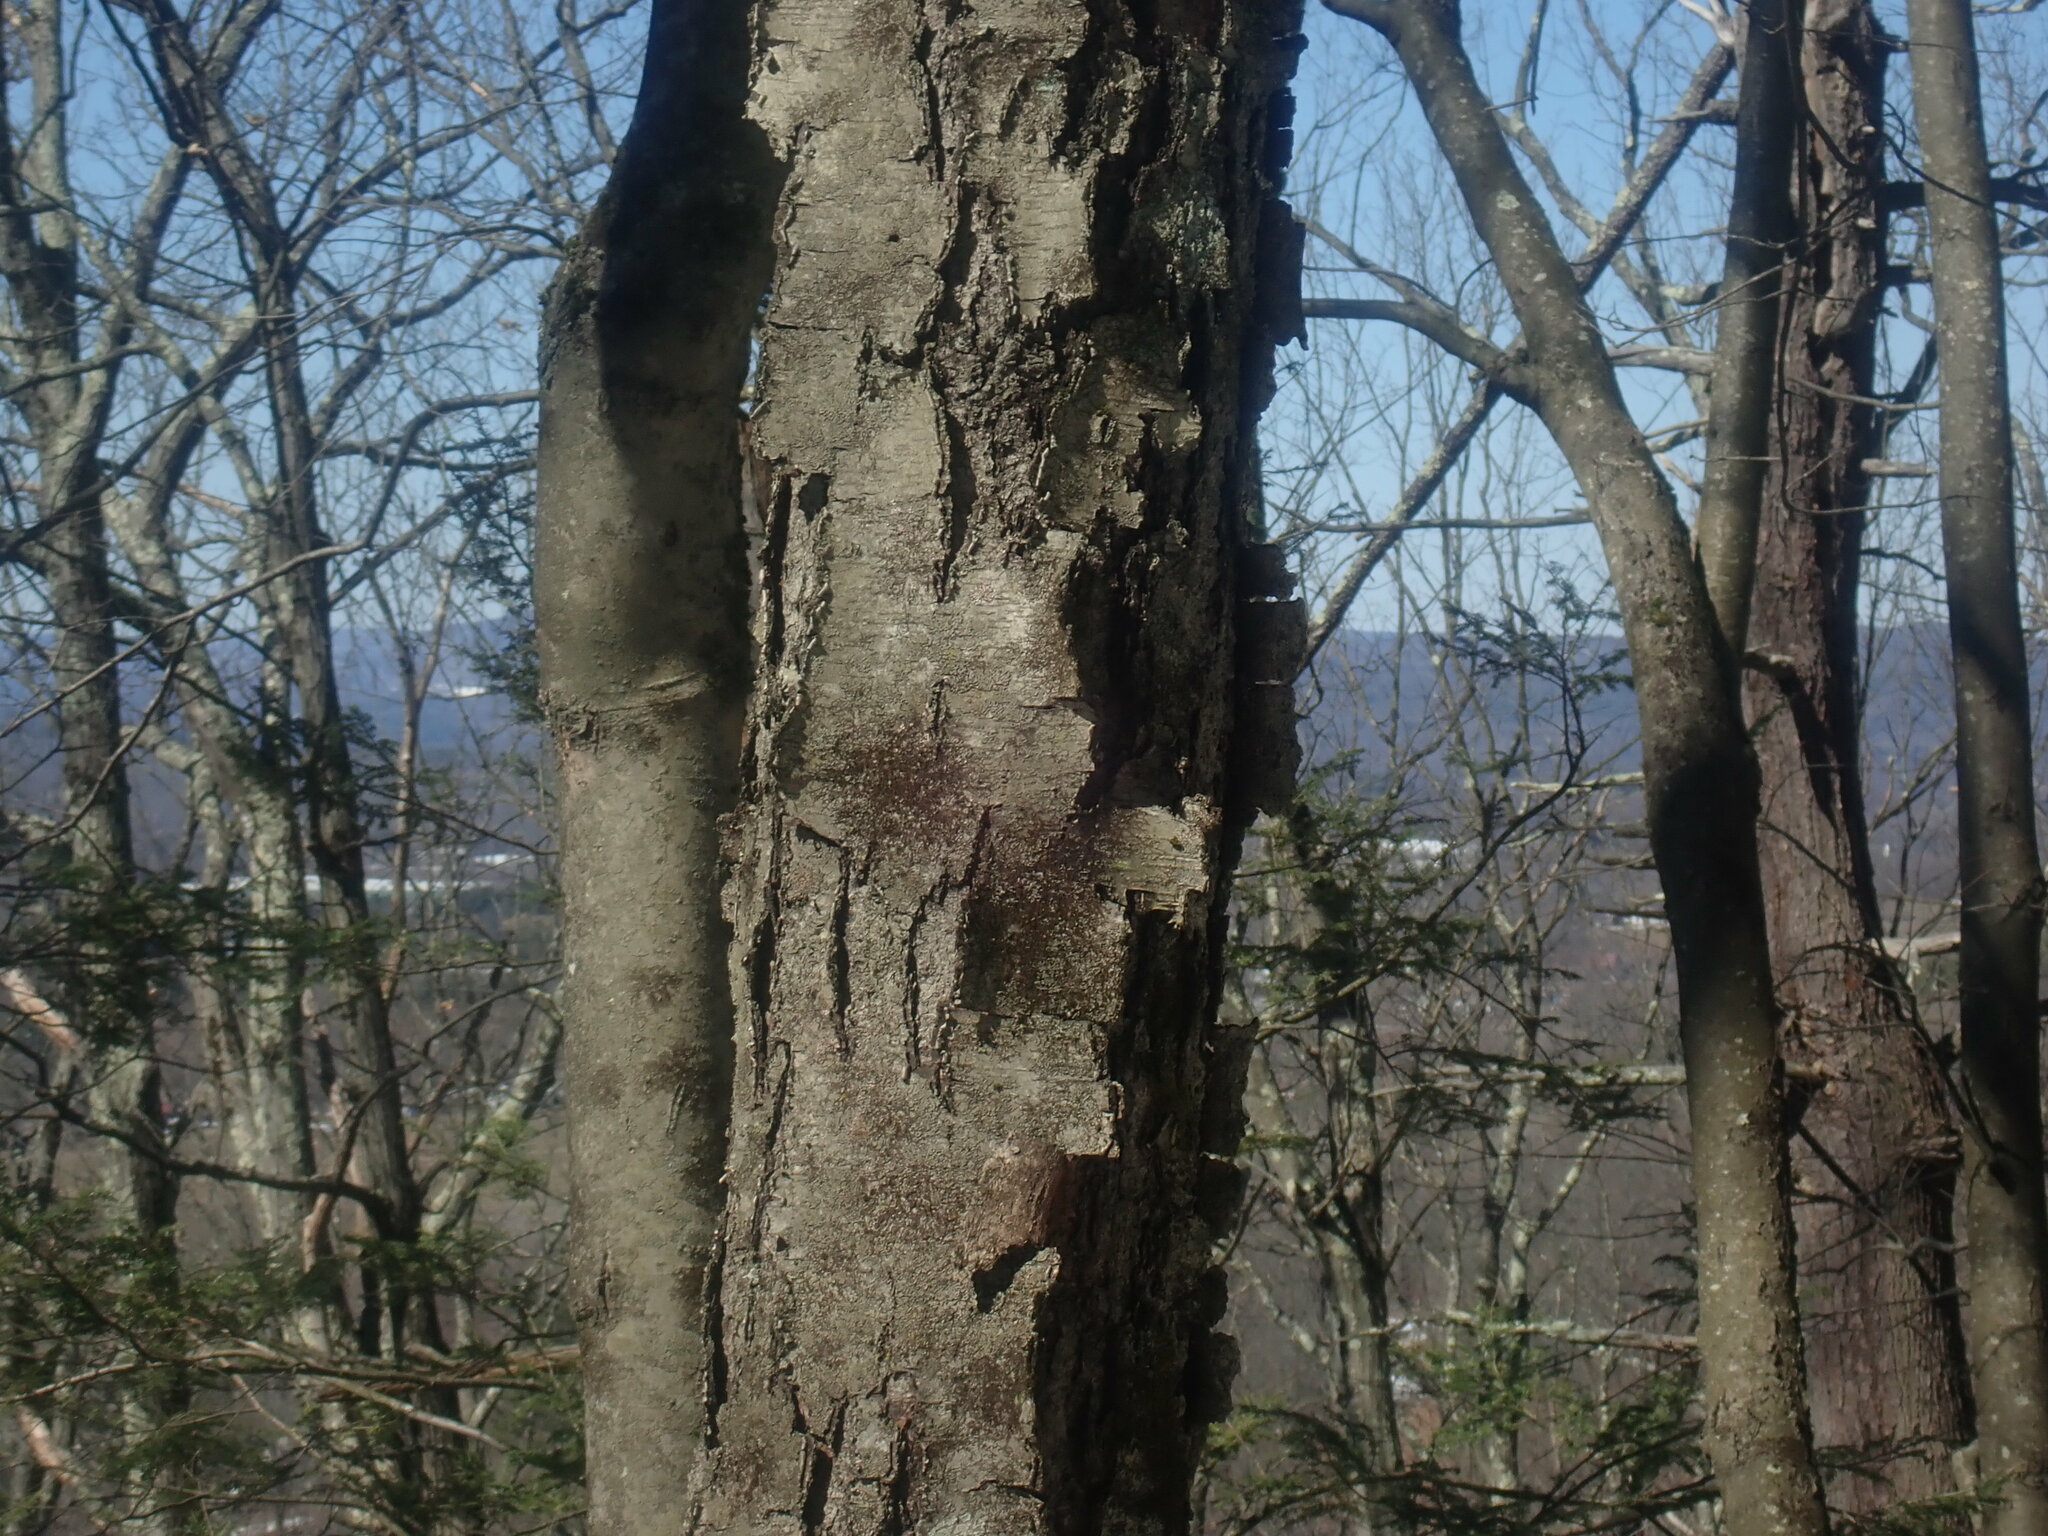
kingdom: Plantae
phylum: Tracheophyta
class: Magnoliopsida
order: Fagales
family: Betulaceae
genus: Betula
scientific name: Betula lenta
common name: Black birch
